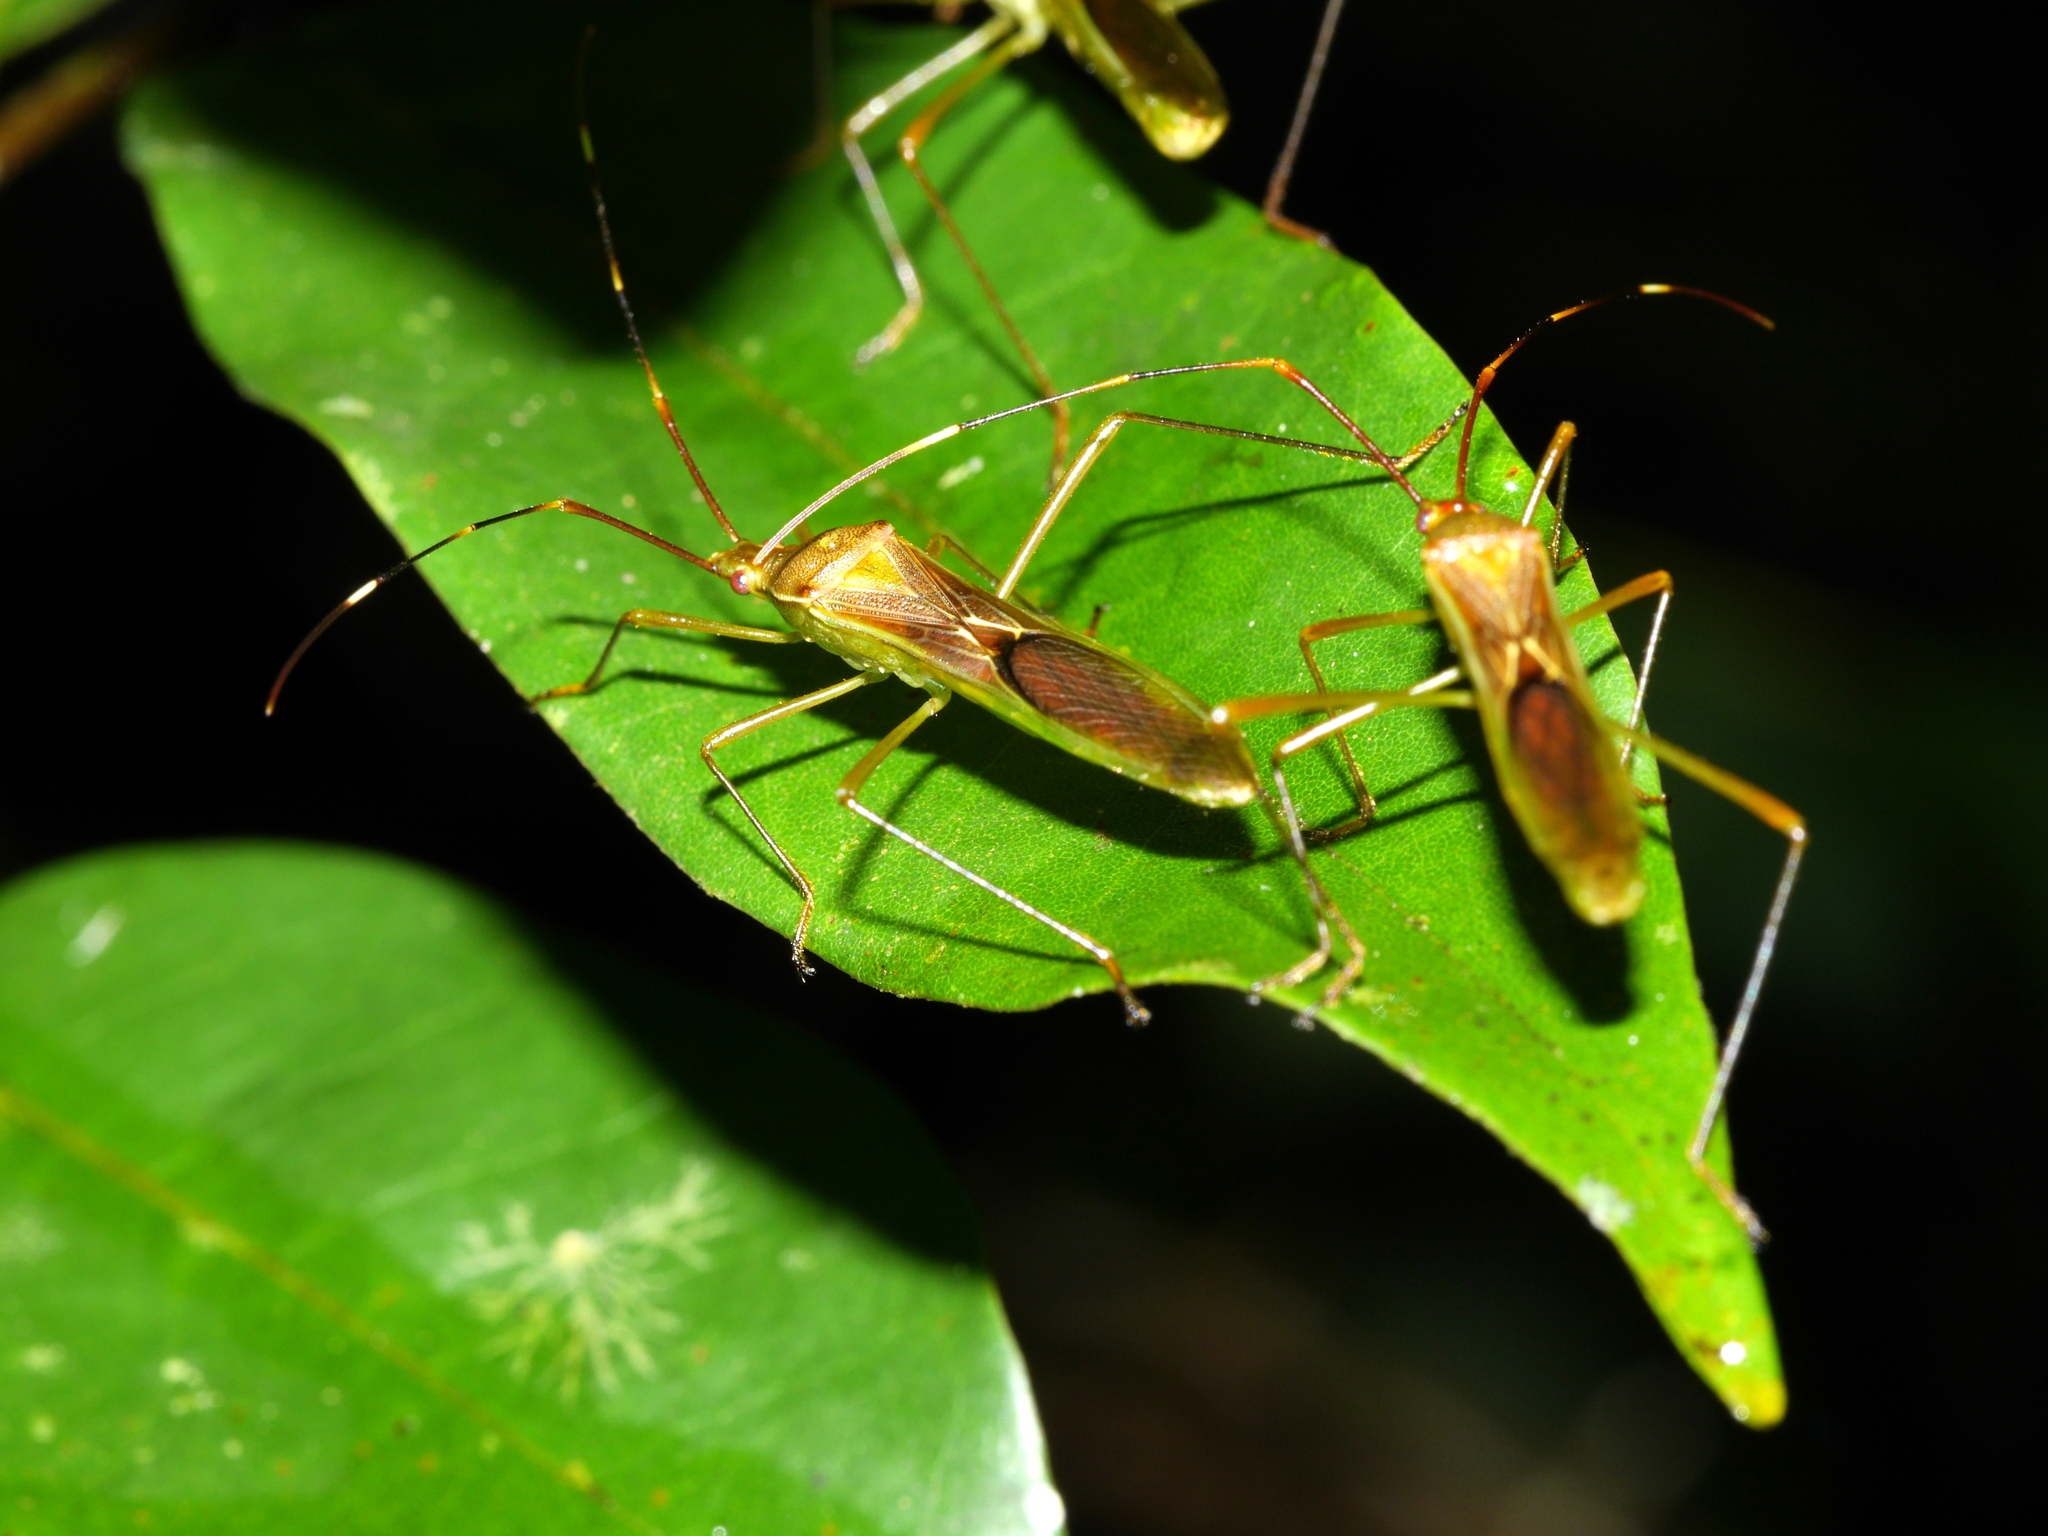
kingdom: Animalia
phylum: Arthropoda
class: Insecta
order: Hemiptera
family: Alydidae
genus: Leptocorisa
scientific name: Leptocorisa oratoria
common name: Rice ear bug
